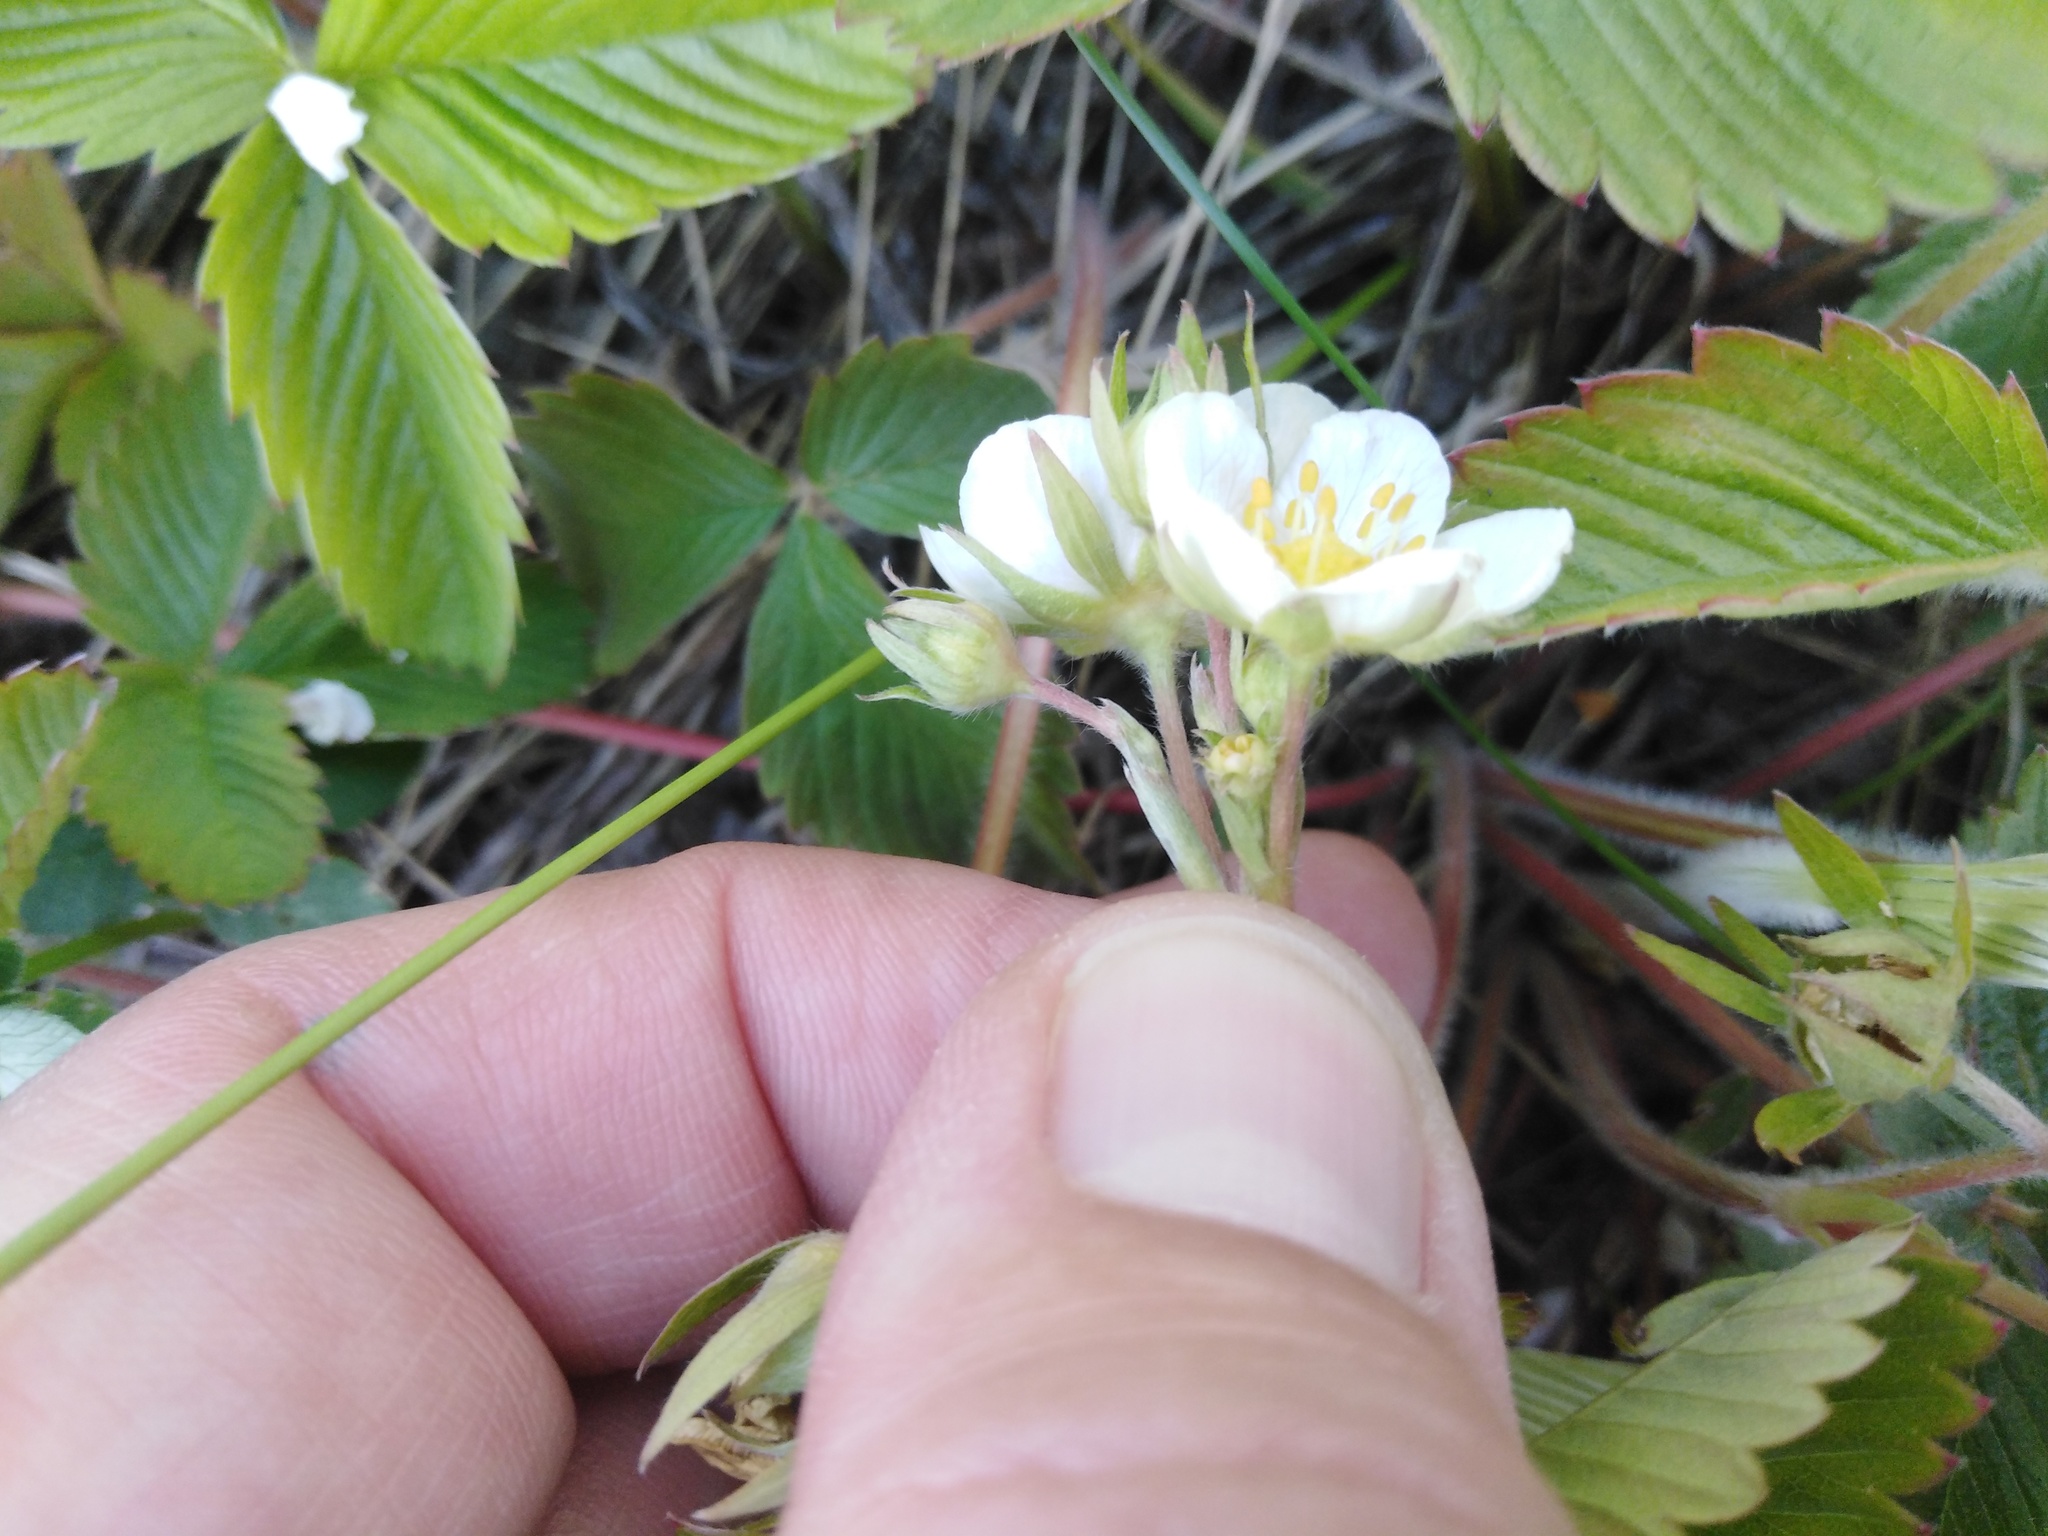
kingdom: Plantae
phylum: Tracheophyta
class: Magnoliopsida
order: Rosales
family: Rosaceae
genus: Fragaria
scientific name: Fragaria viridis
